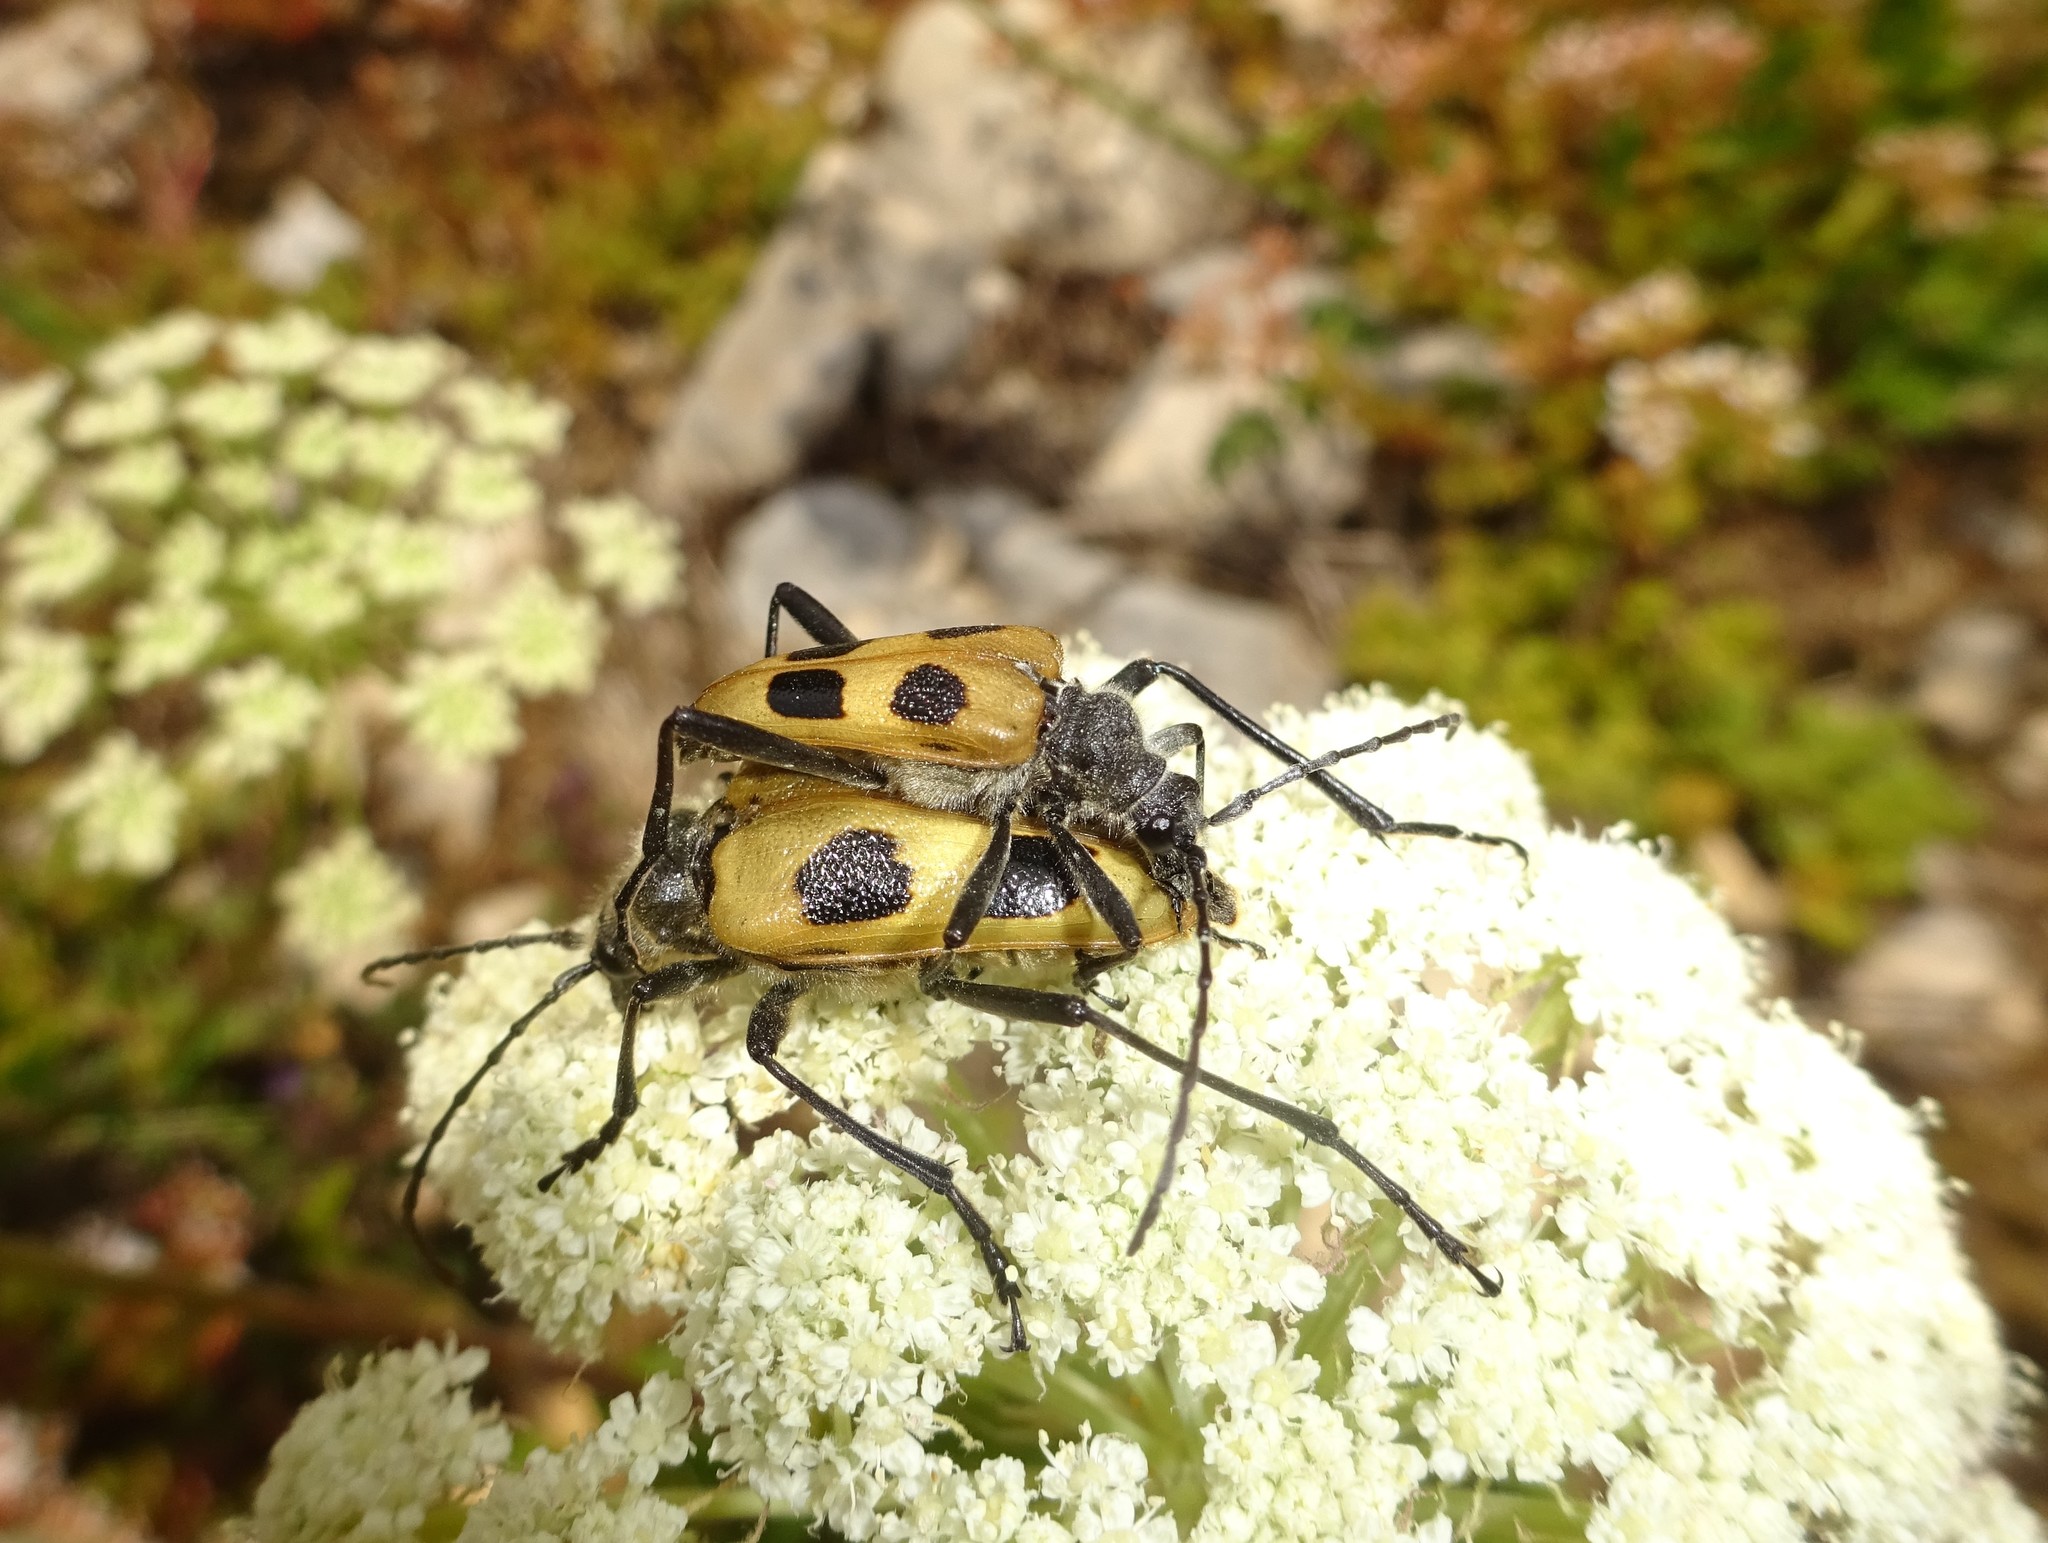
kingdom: Animalia
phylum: Arthropoda
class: Insecta
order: Coleoptera
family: Cerambycidae
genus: Pachyta
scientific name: Pachyta quadrimaculata
